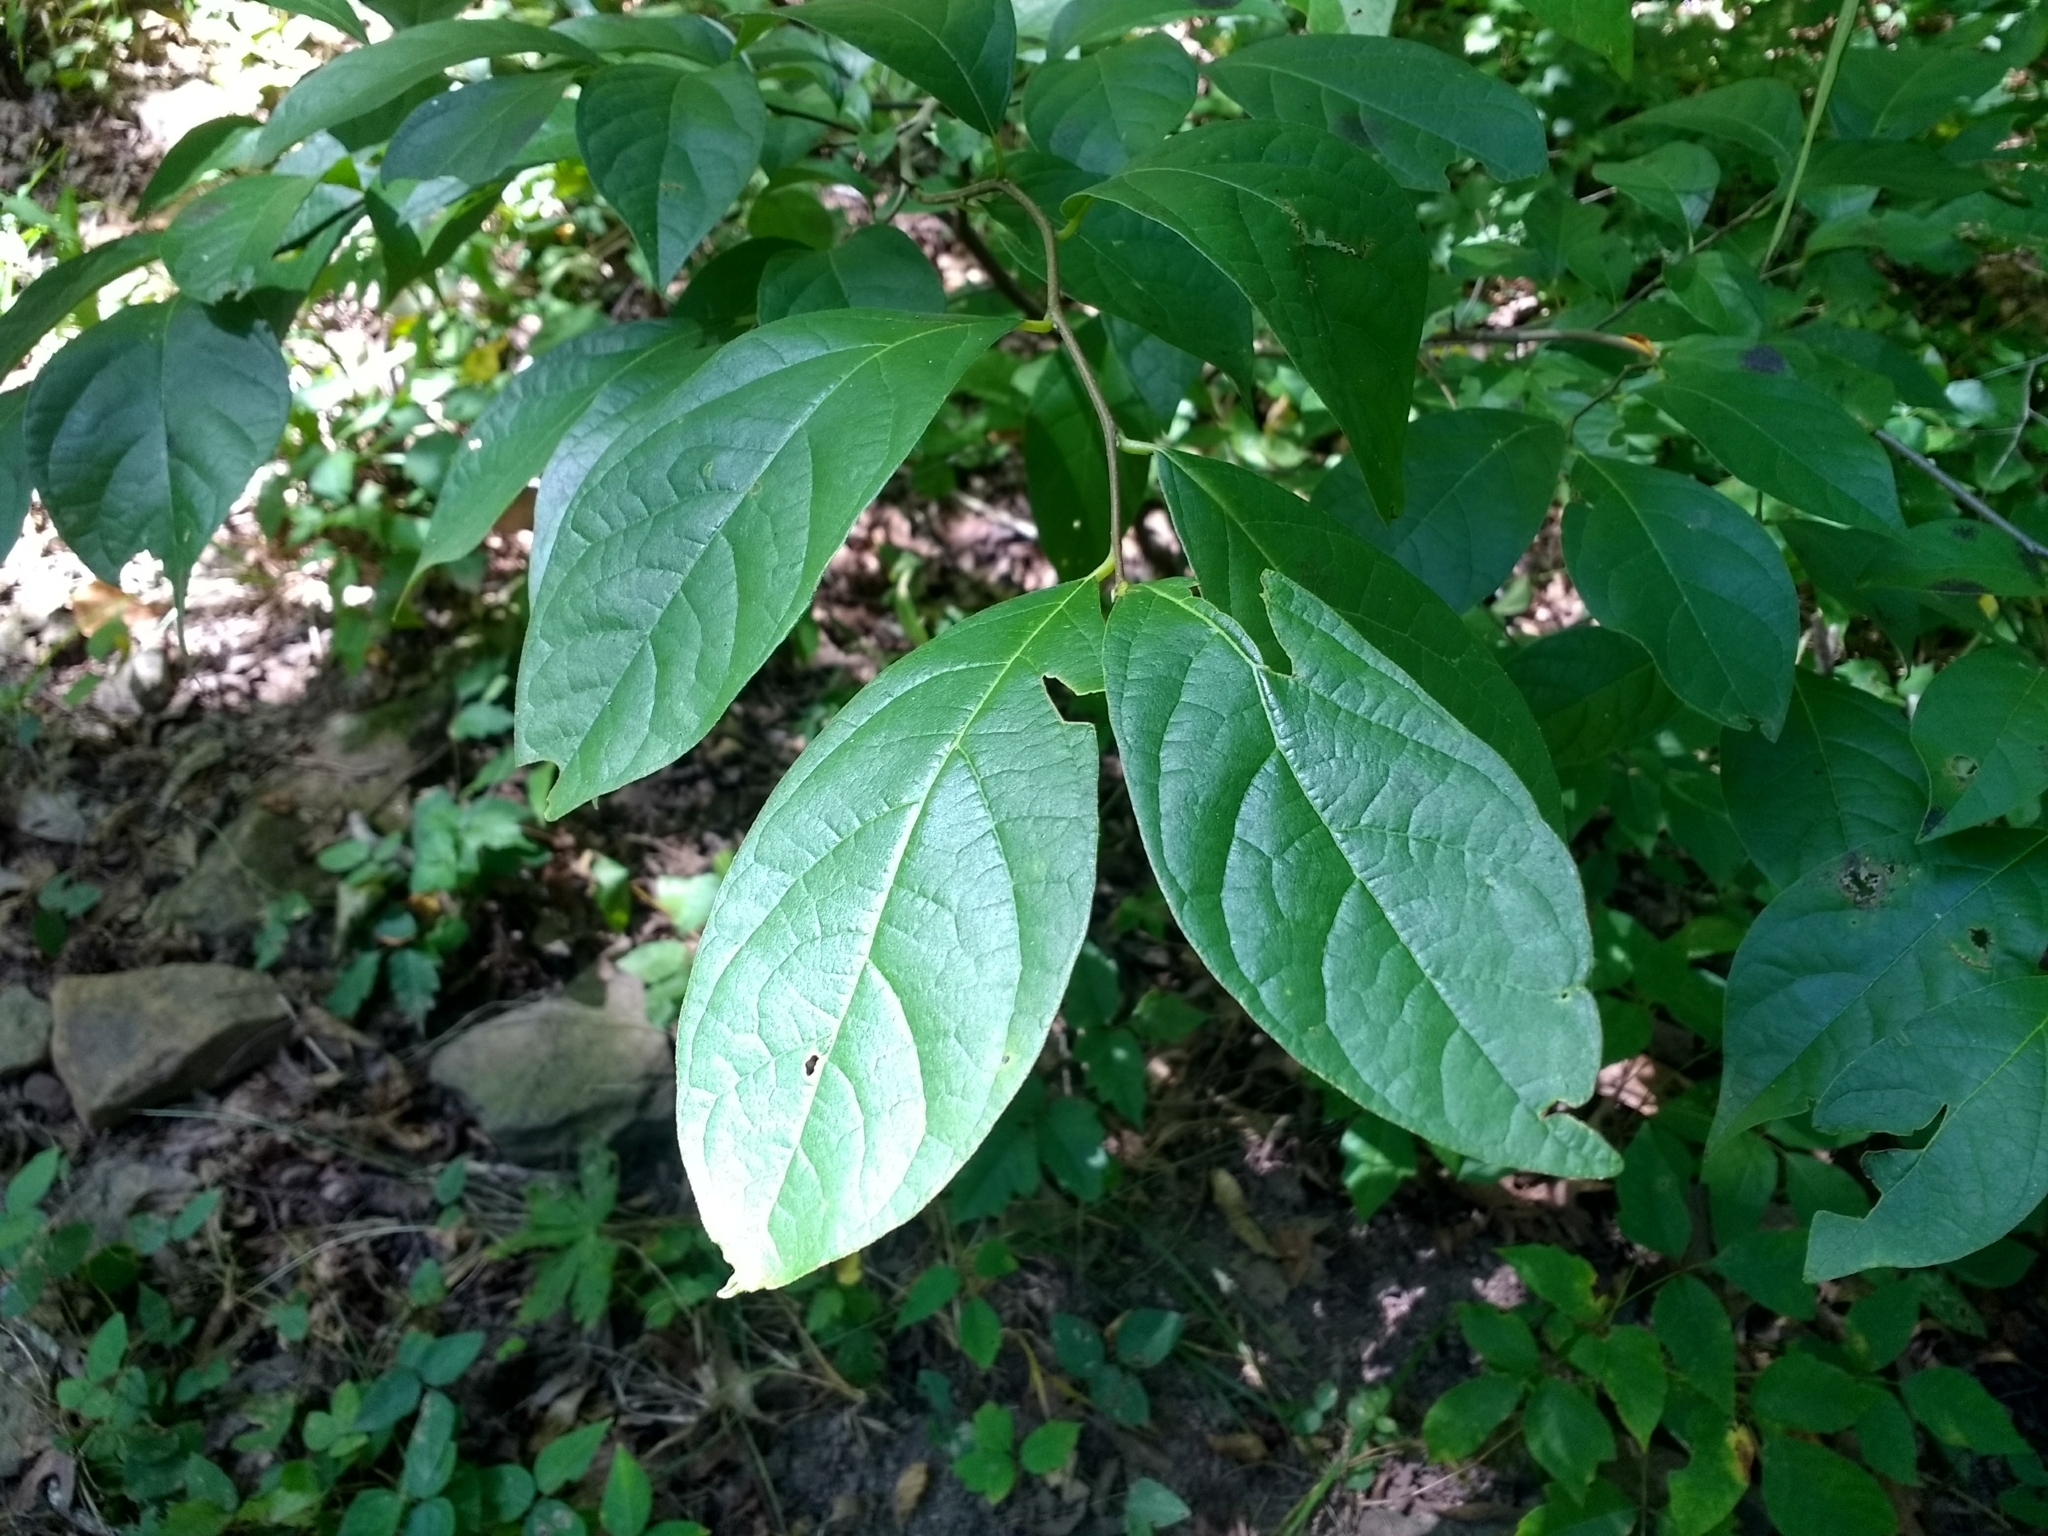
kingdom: Plantae
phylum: Tracheophyta
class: Magnoliopsida
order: Laurales
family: Lauraceae
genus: Lindera
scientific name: Lindera benzoin
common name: Spicebush
